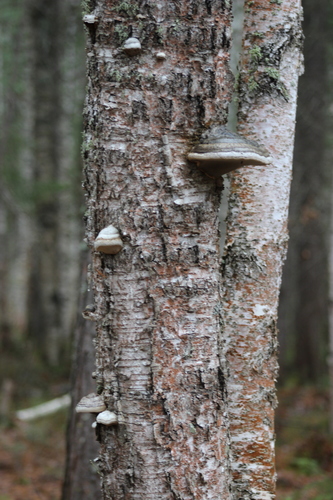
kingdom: Fungi
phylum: Basidiomycota
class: Agaricomycetes
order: Polyporales
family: Polyporaceae
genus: Fomes
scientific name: Fomes fomentarius
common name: Hoof fungus
